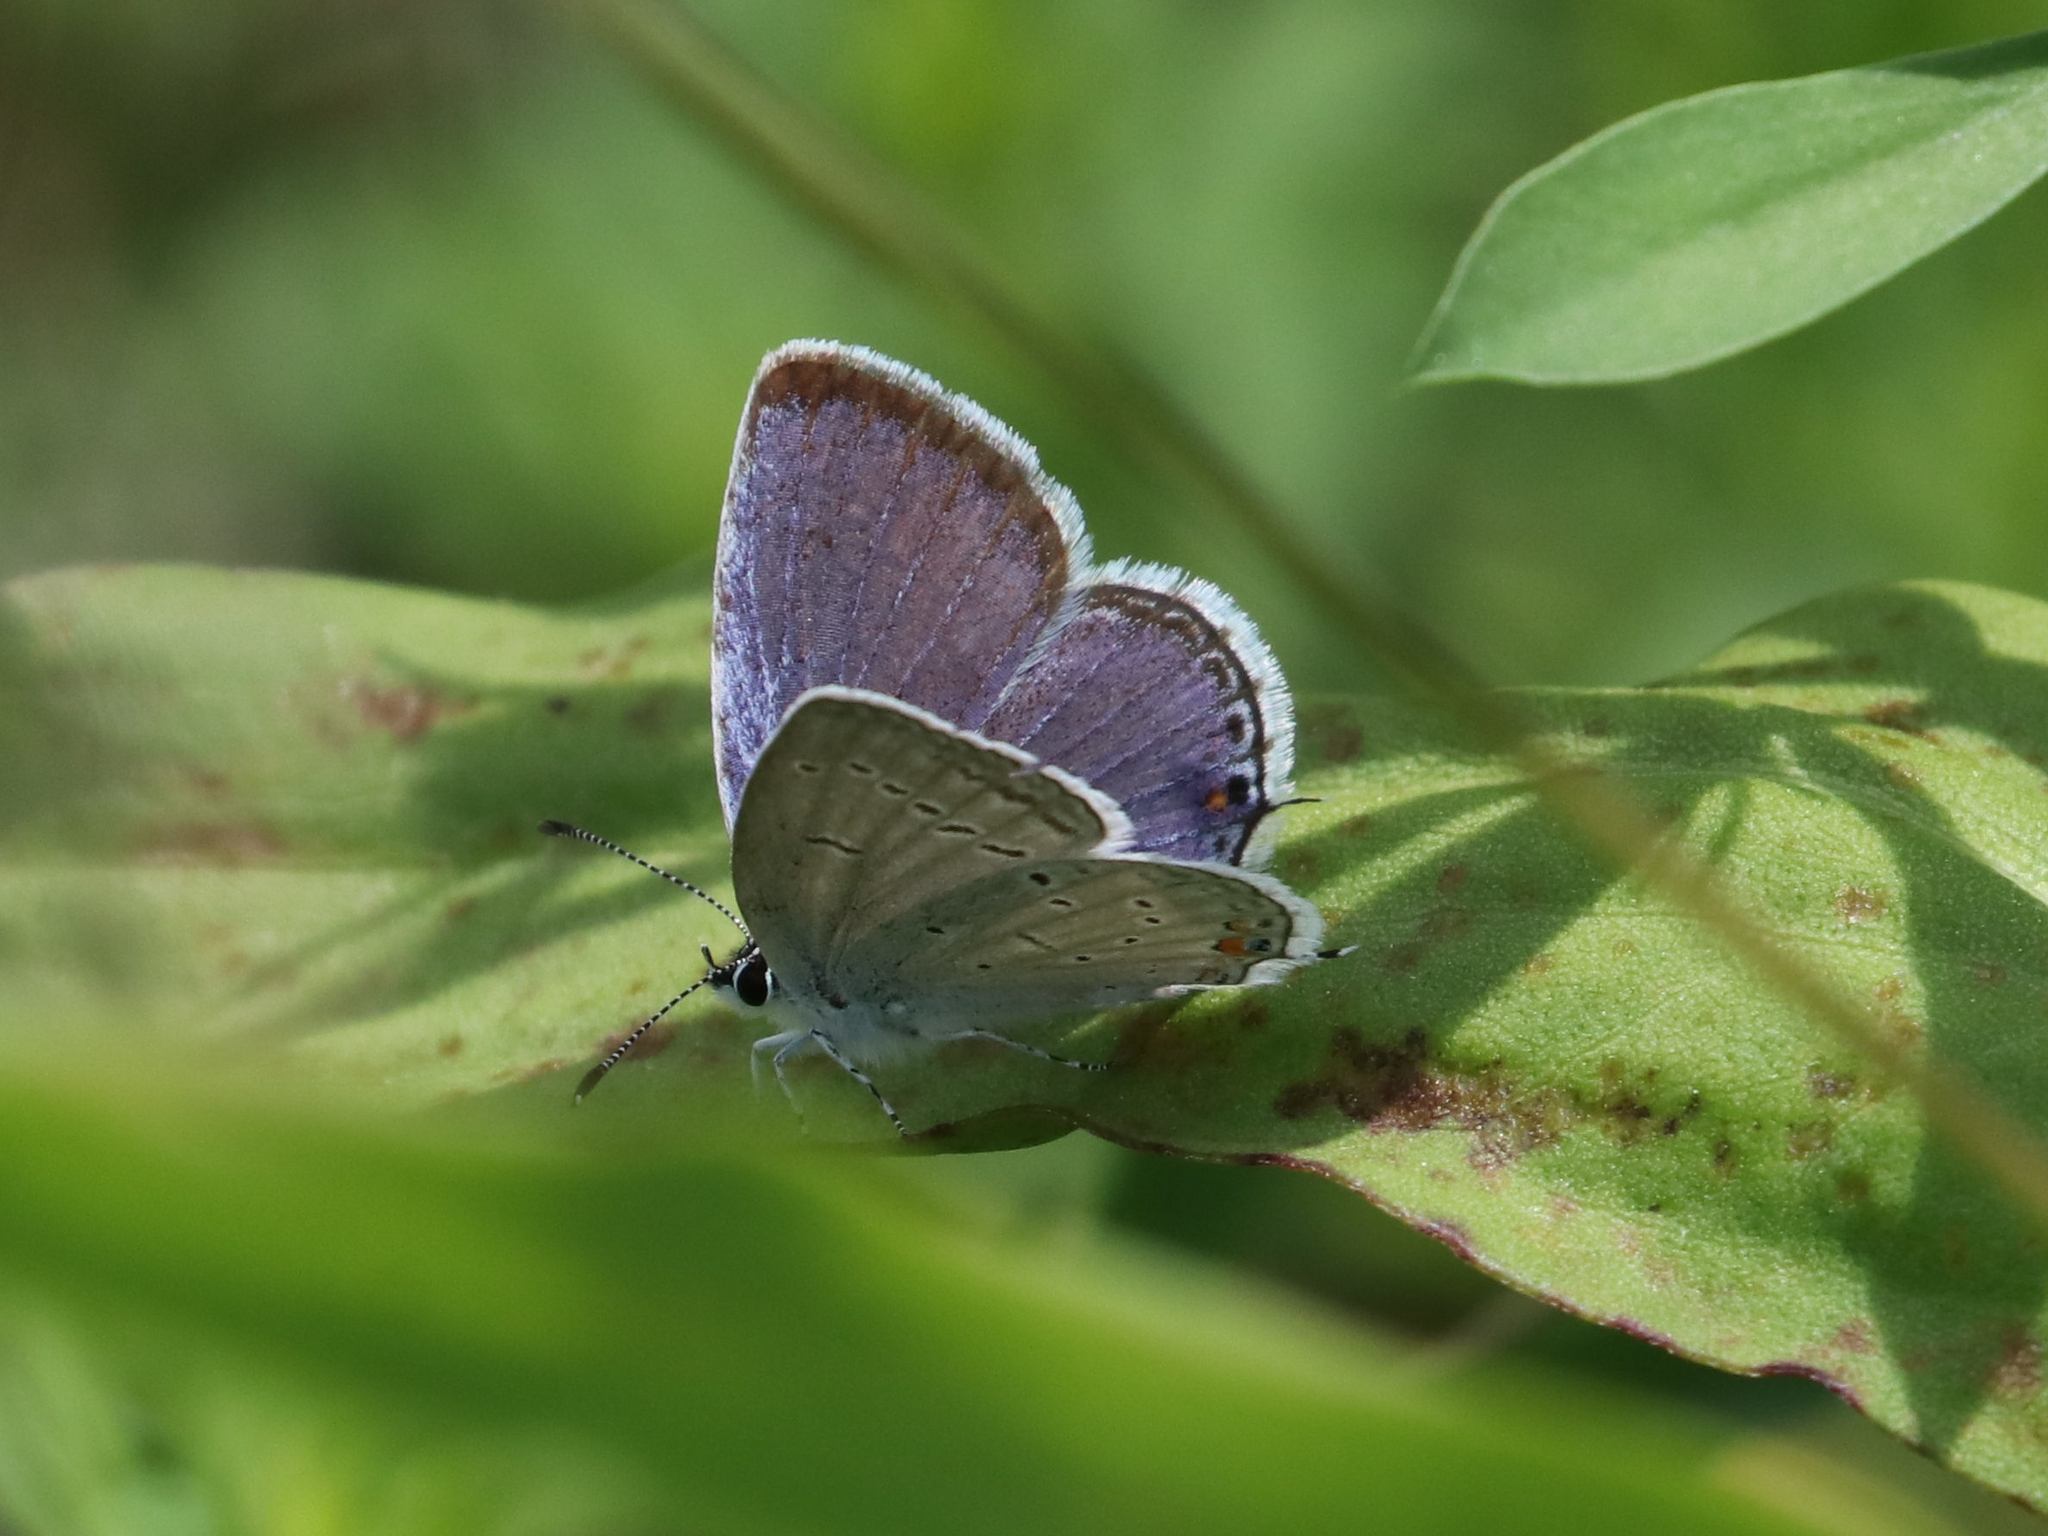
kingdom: Animalia
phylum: Arthropoda
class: Insecta
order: Lepidoptera
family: Lycaenidae
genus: Elkalyce
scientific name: Elkalyce comyntas
